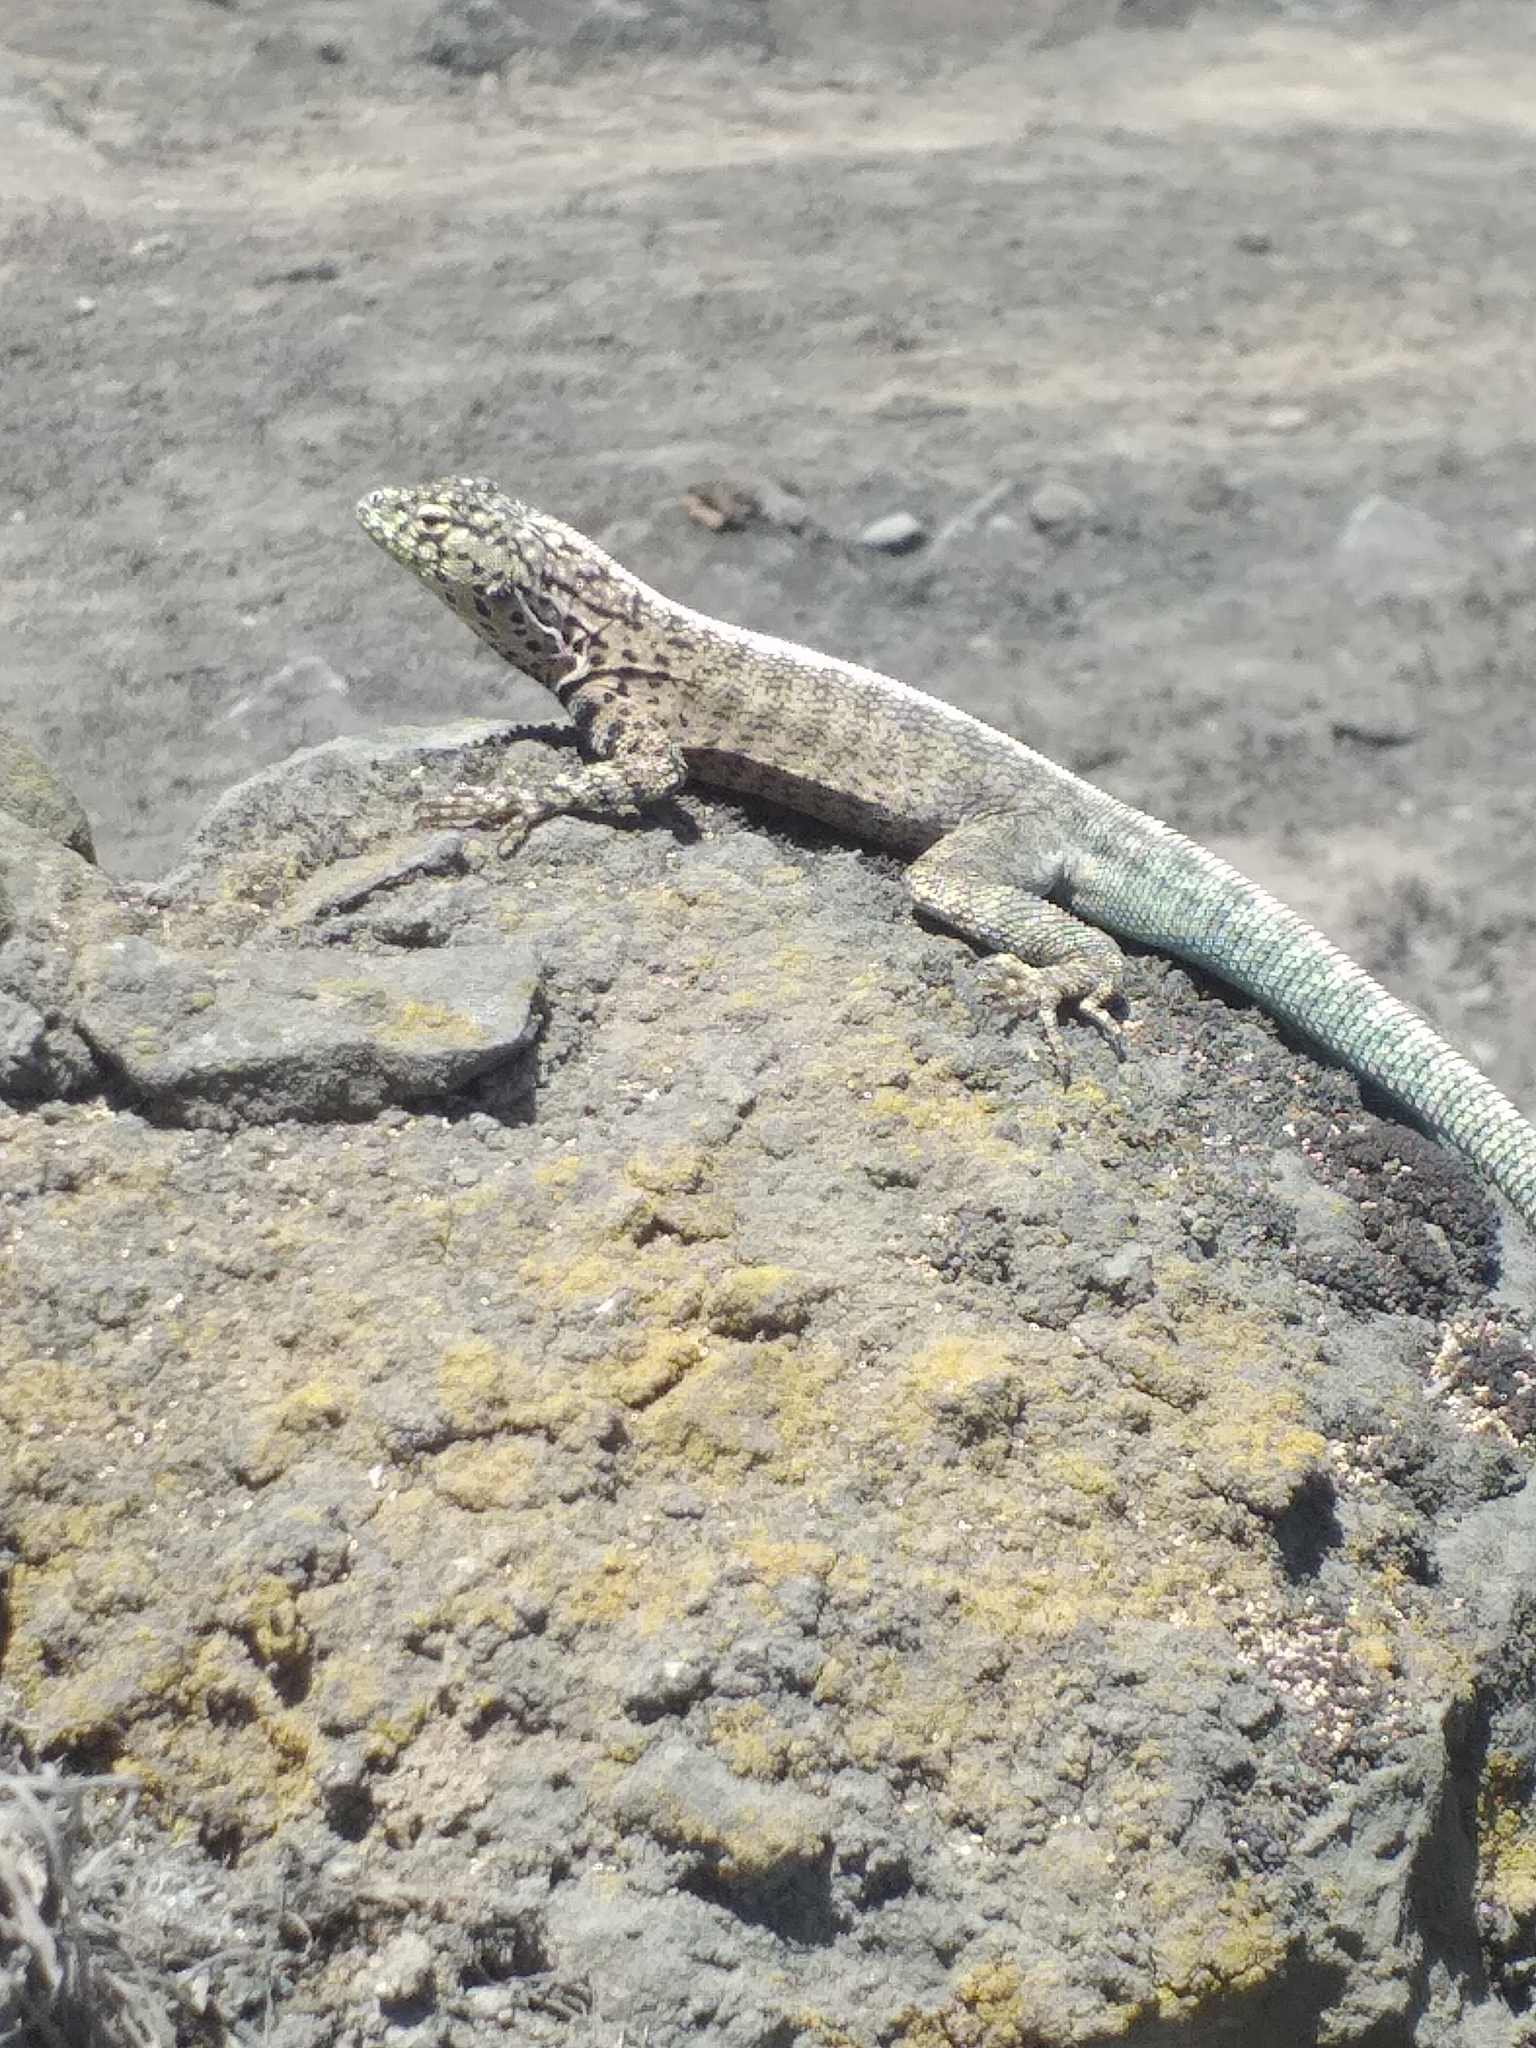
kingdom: Animalia
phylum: Chordata
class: Squamata
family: Tropiduridae
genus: Microlophus
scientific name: Microlophus tigris
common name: Tiger pacific iguana
